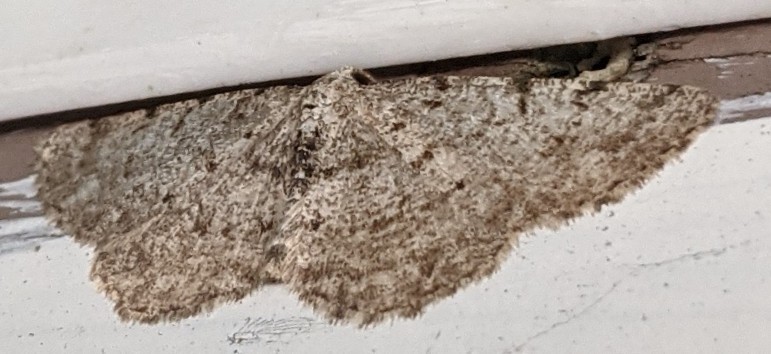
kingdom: Animalia
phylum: Arthropoda
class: Insecta
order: Lepidoptera
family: Geometridae
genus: Aethalura
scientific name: Aethalura intertexta
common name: Four-barred gray
